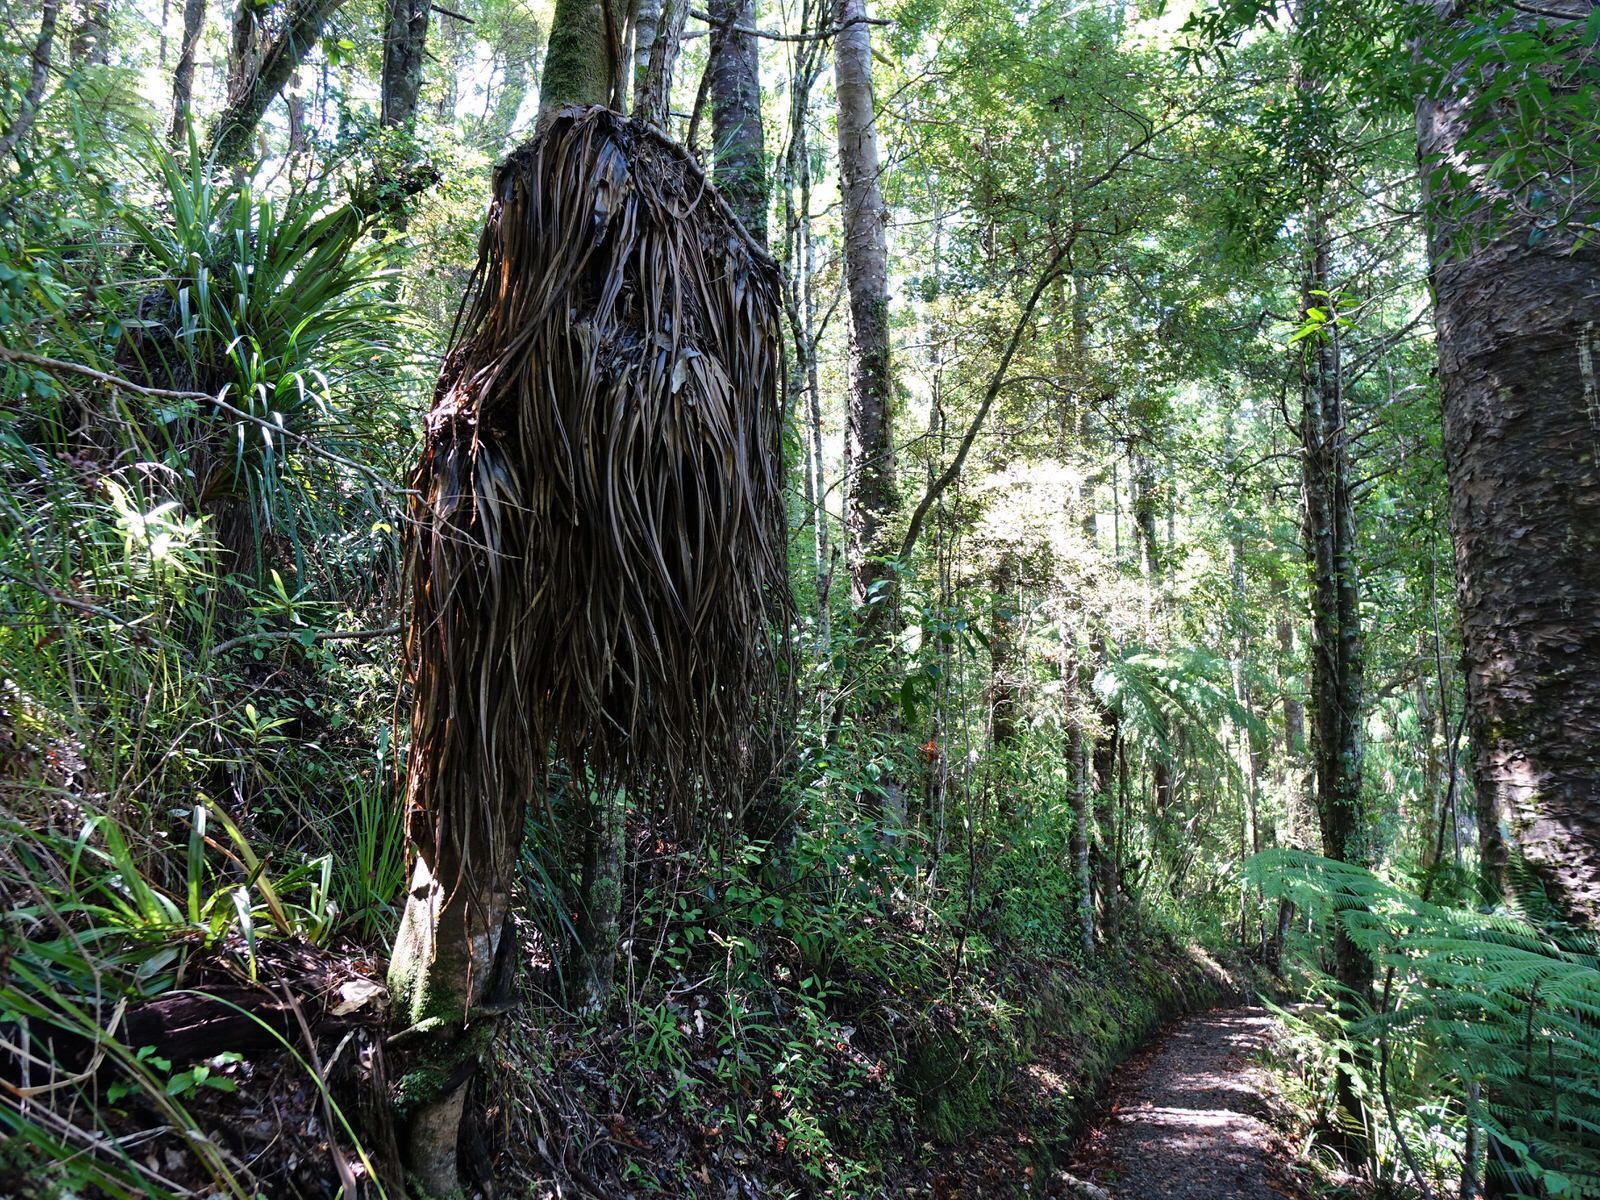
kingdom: Plantae
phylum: Tracheophyta
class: Liliopsida
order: Asparagales
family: Asteliaceae
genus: Astelia
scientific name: Astelia hastata
